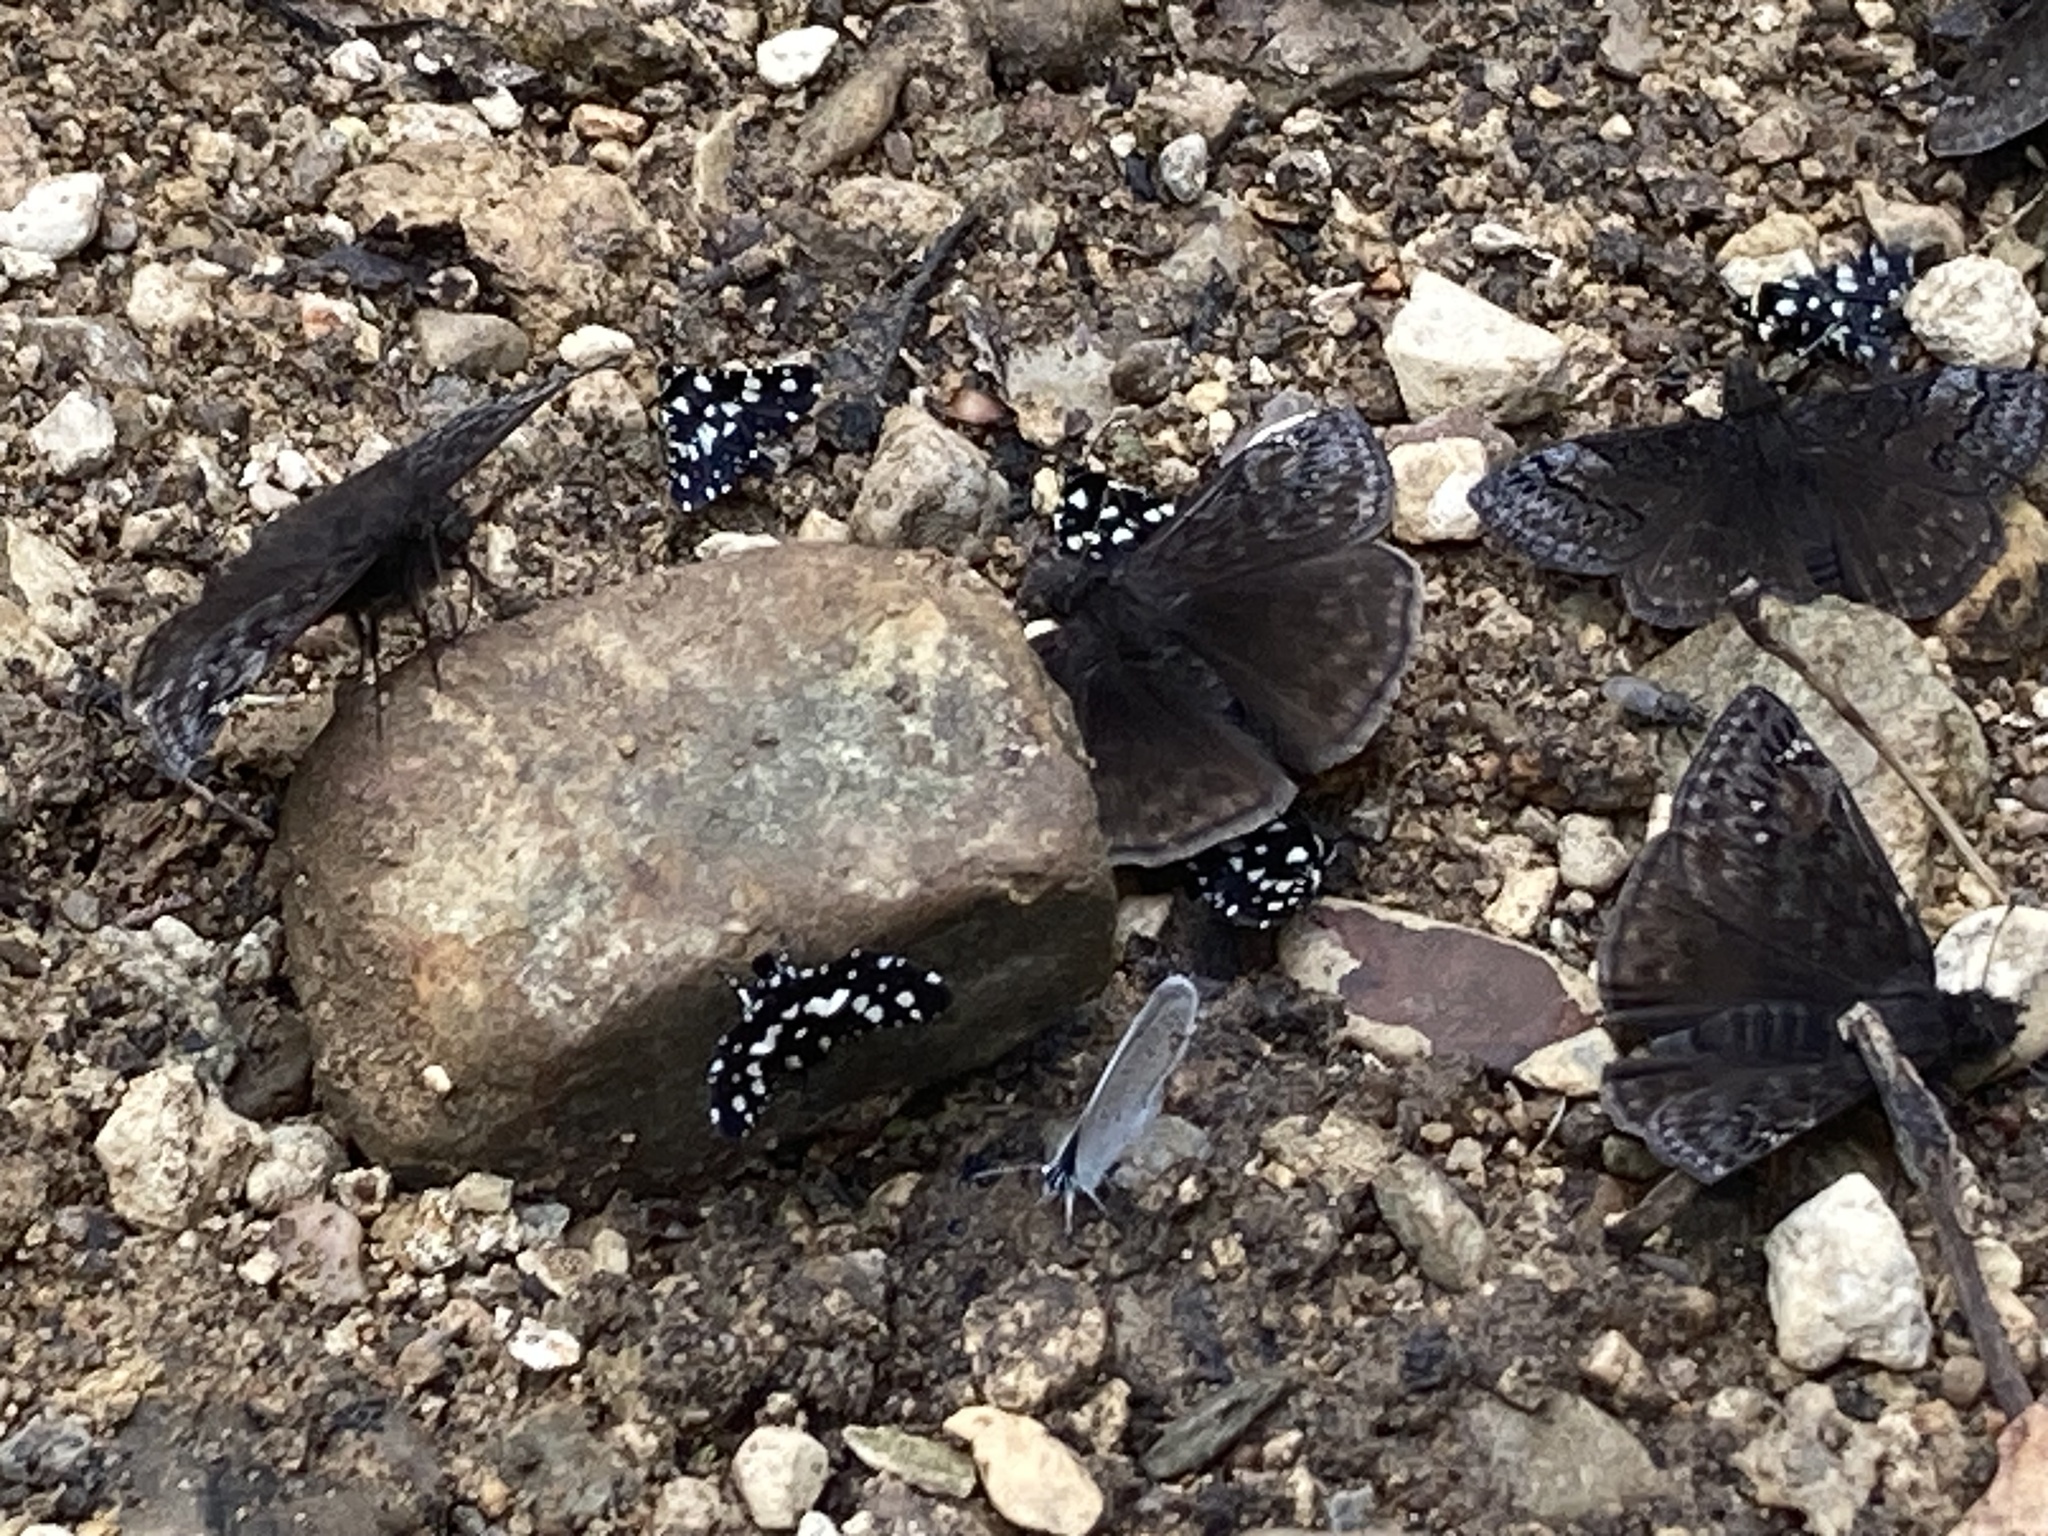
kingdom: Animalia
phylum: Arthropoda
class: Insecta
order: Lepidoptera
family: Thyrididae
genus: Pseudothyris
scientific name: Pseudothyris sepulchralis
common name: Mournful thyris moth
